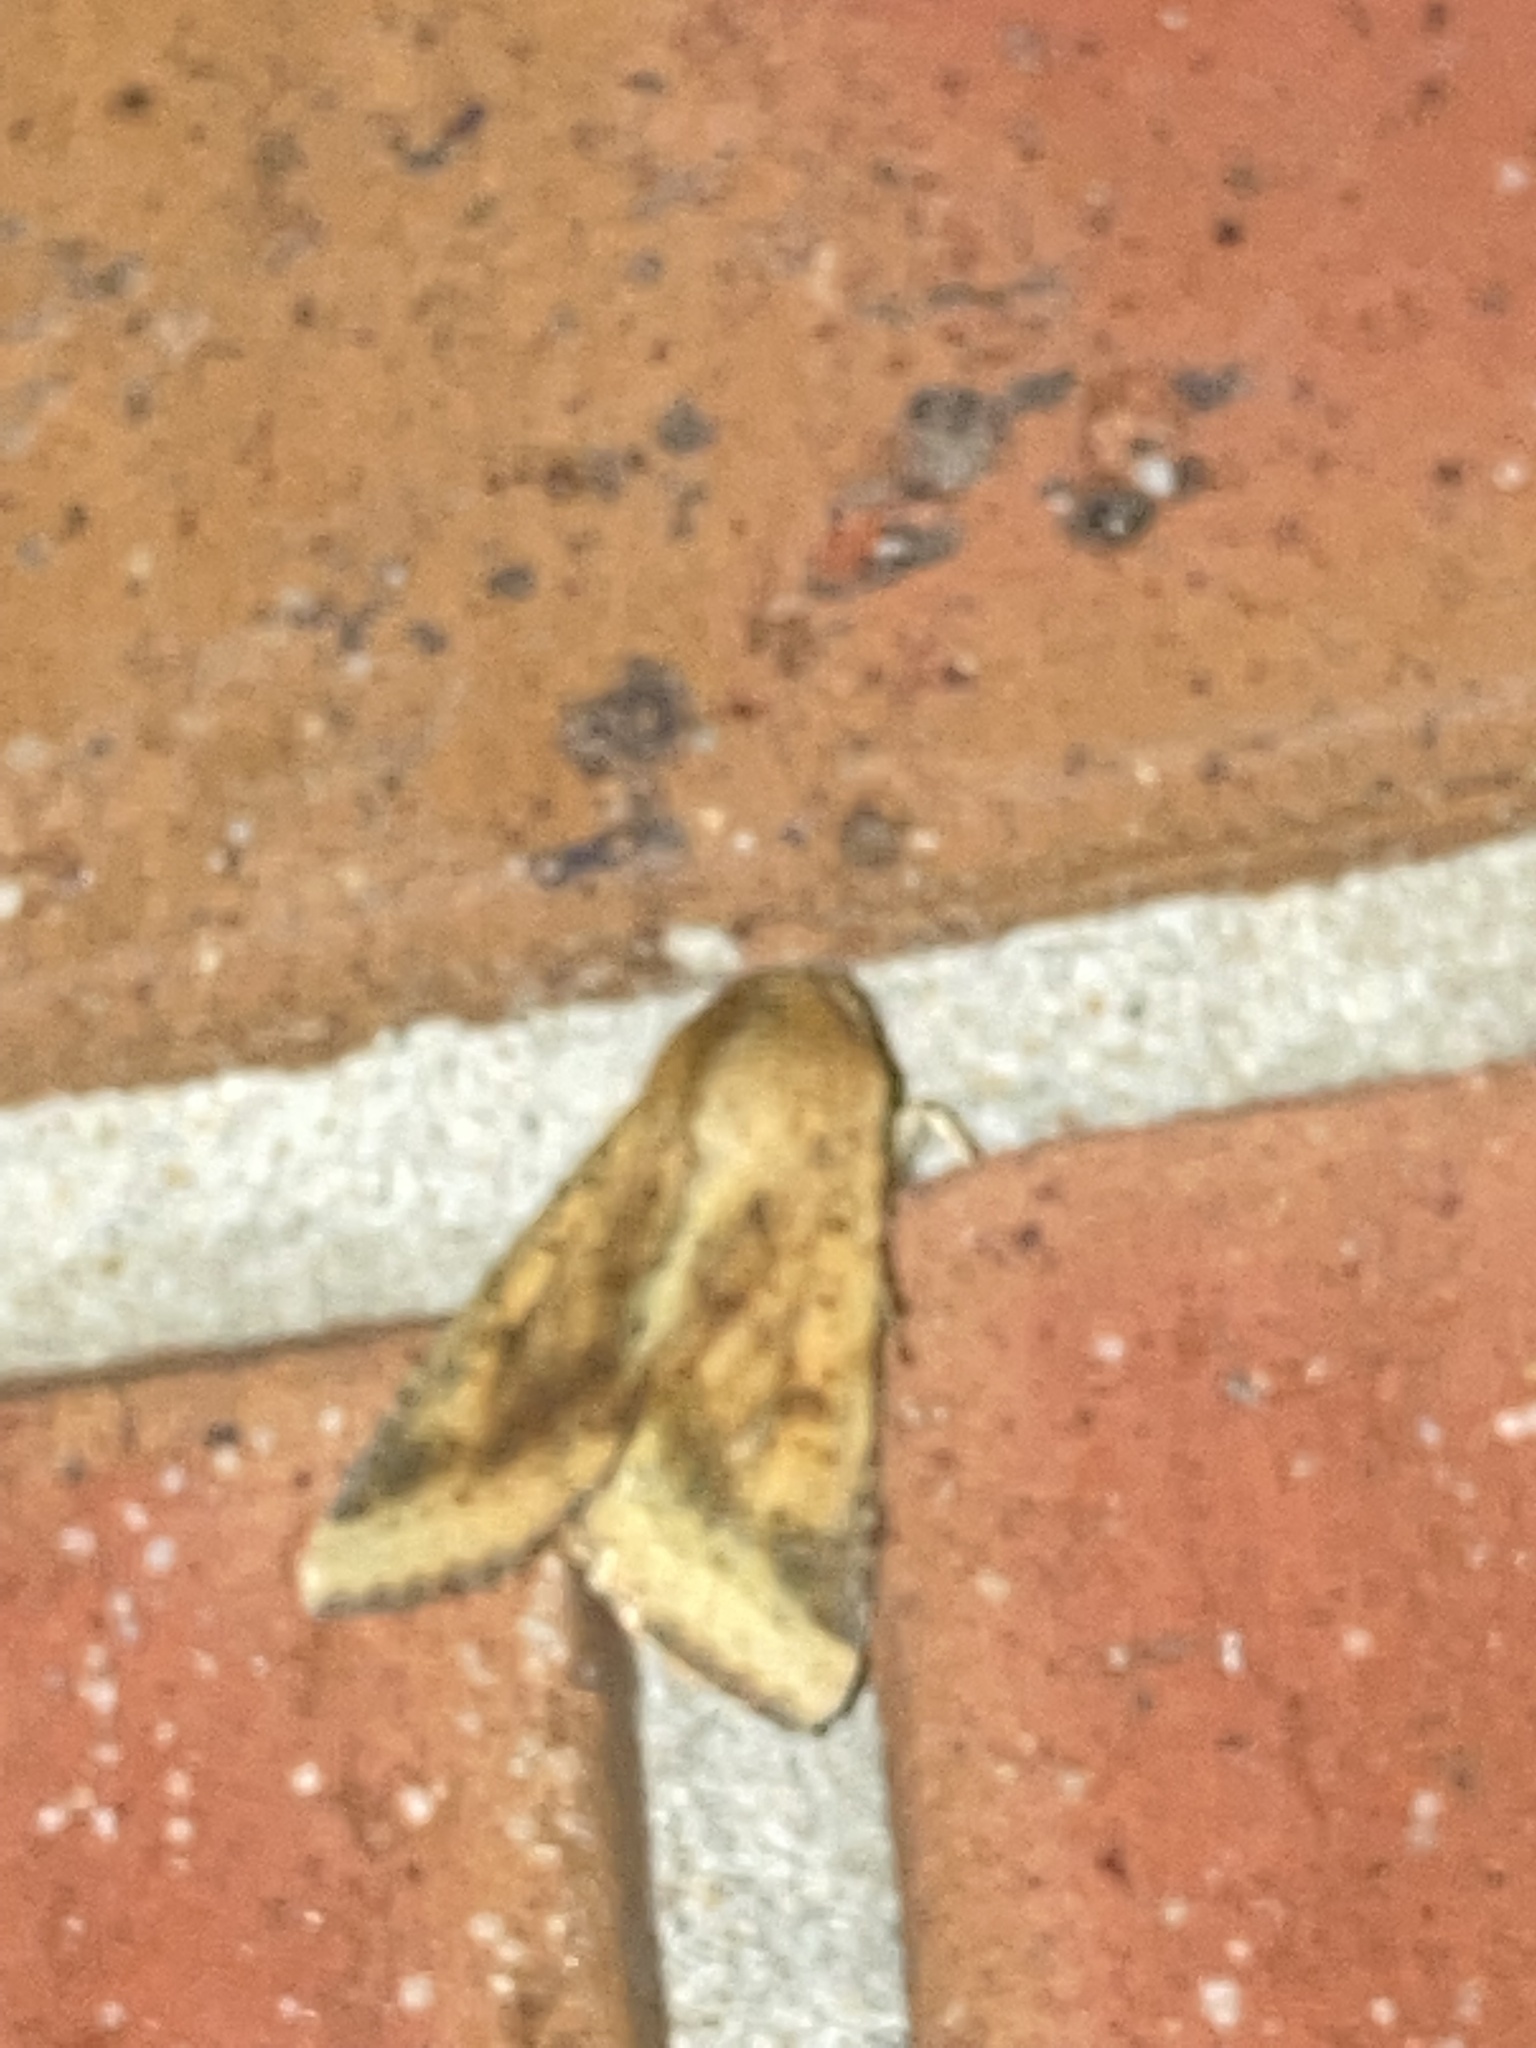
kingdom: Animalia
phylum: Arthropoda
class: Insecta
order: Lepidoptera
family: Noctuidae
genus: Helicoverpa
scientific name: Helicoverpa zea
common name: Bollworm
